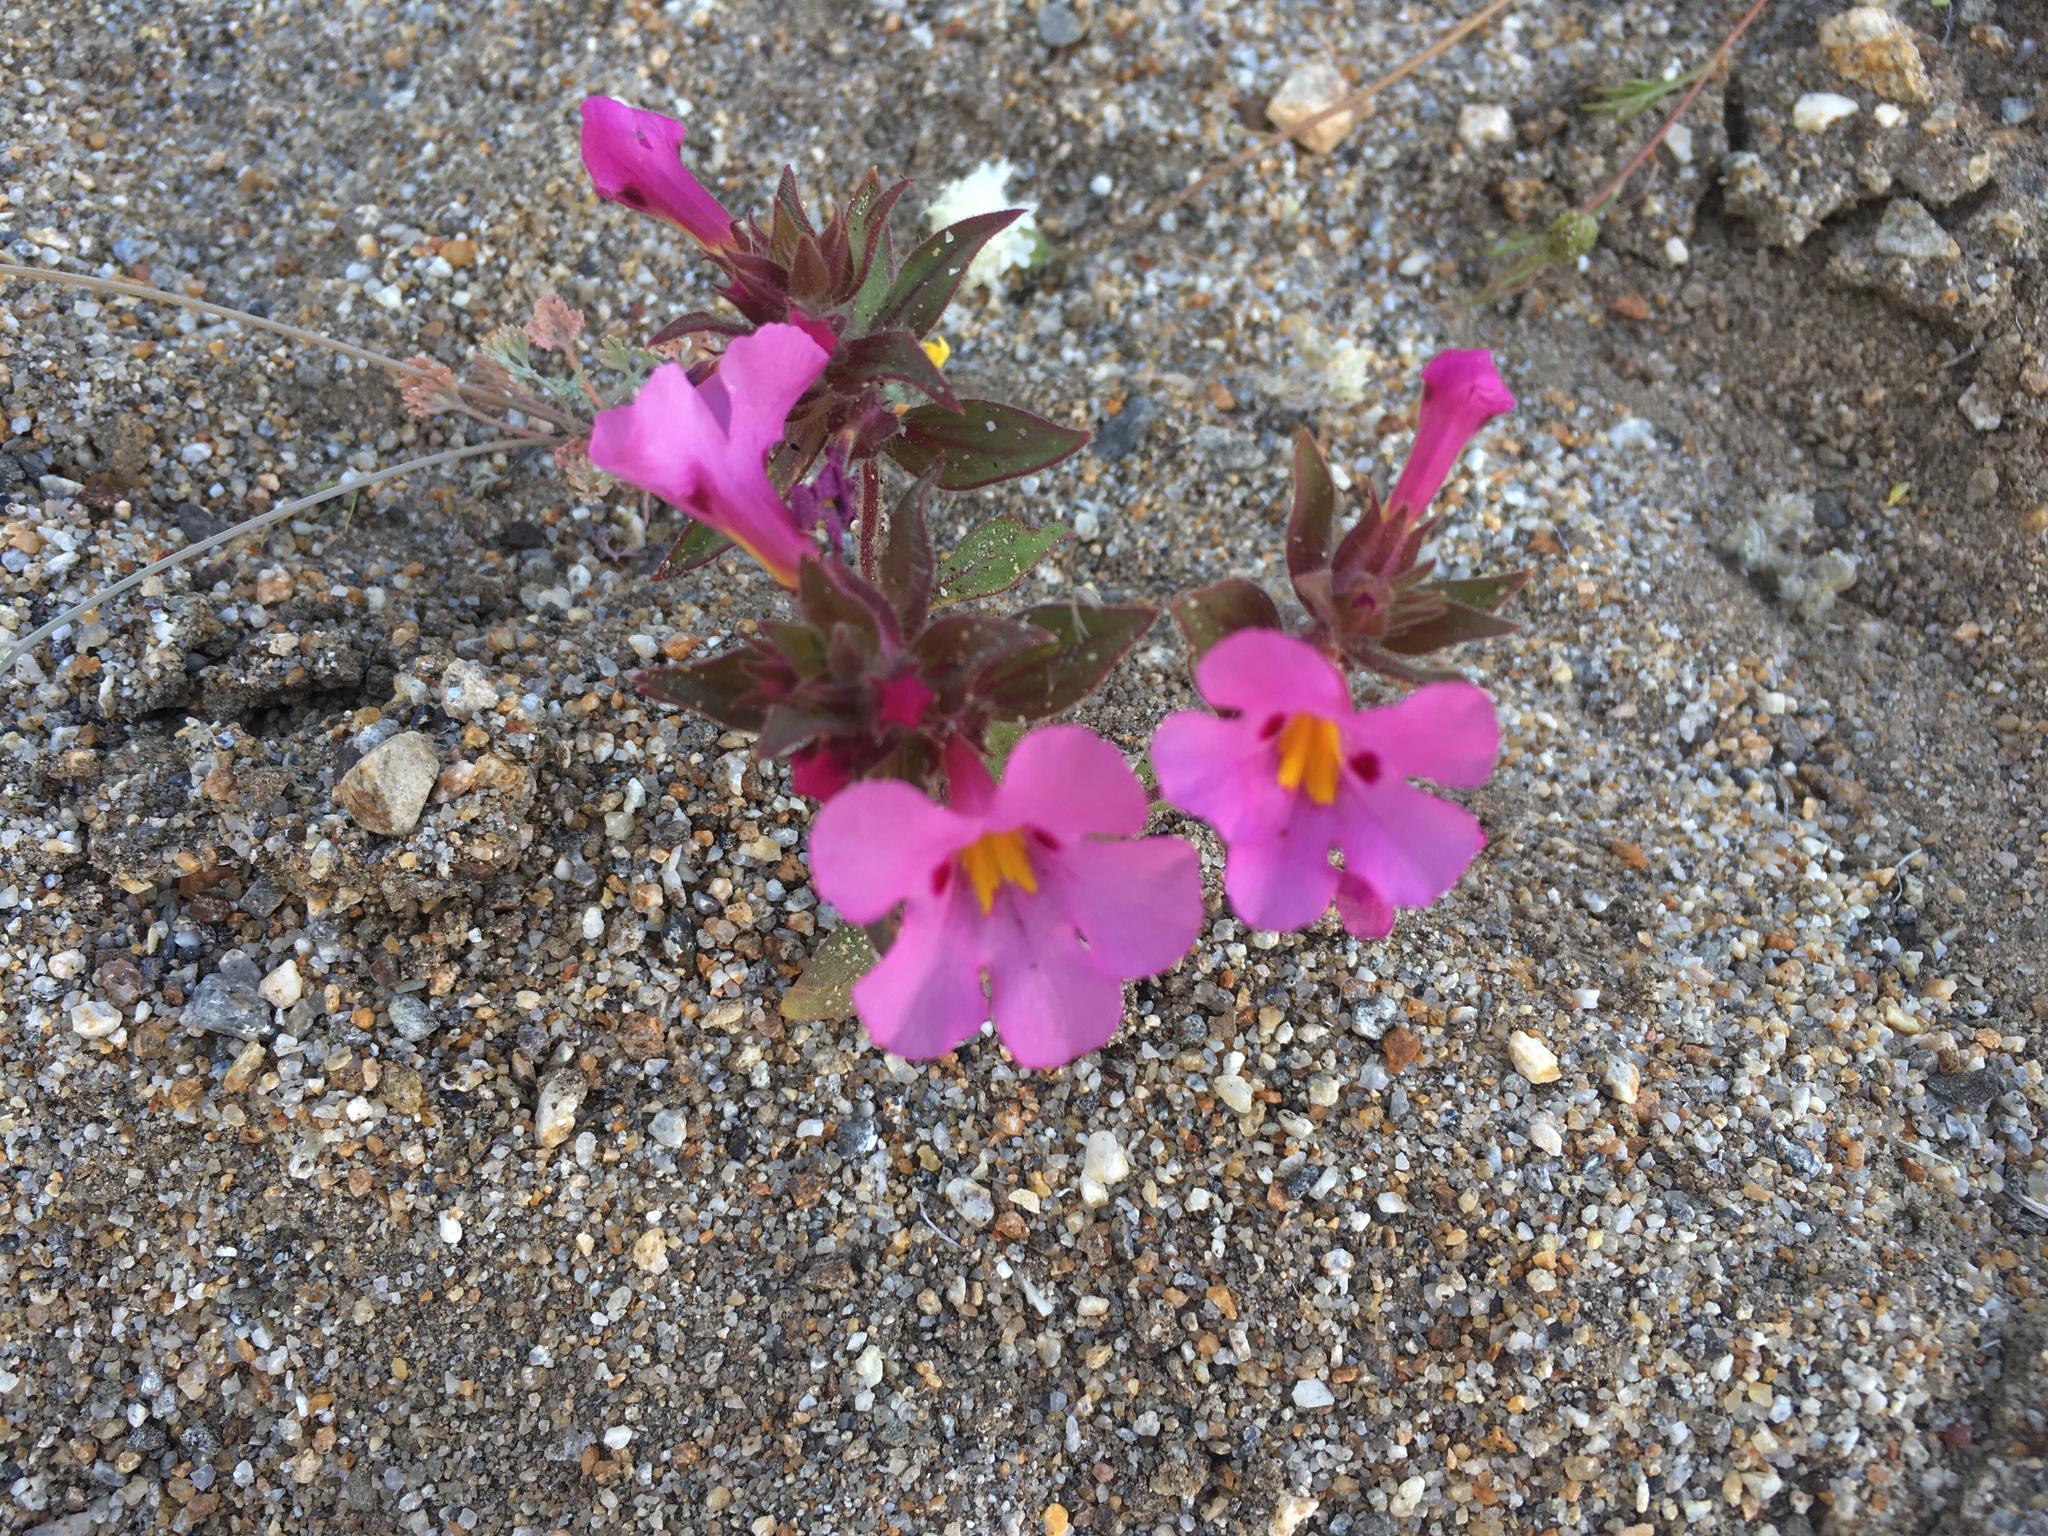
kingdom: Plantae
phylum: Tracheophyta
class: Magnoliopsida
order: Lamiales
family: Phrymaceae
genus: Diplacus
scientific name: Diplacus bigelovii
